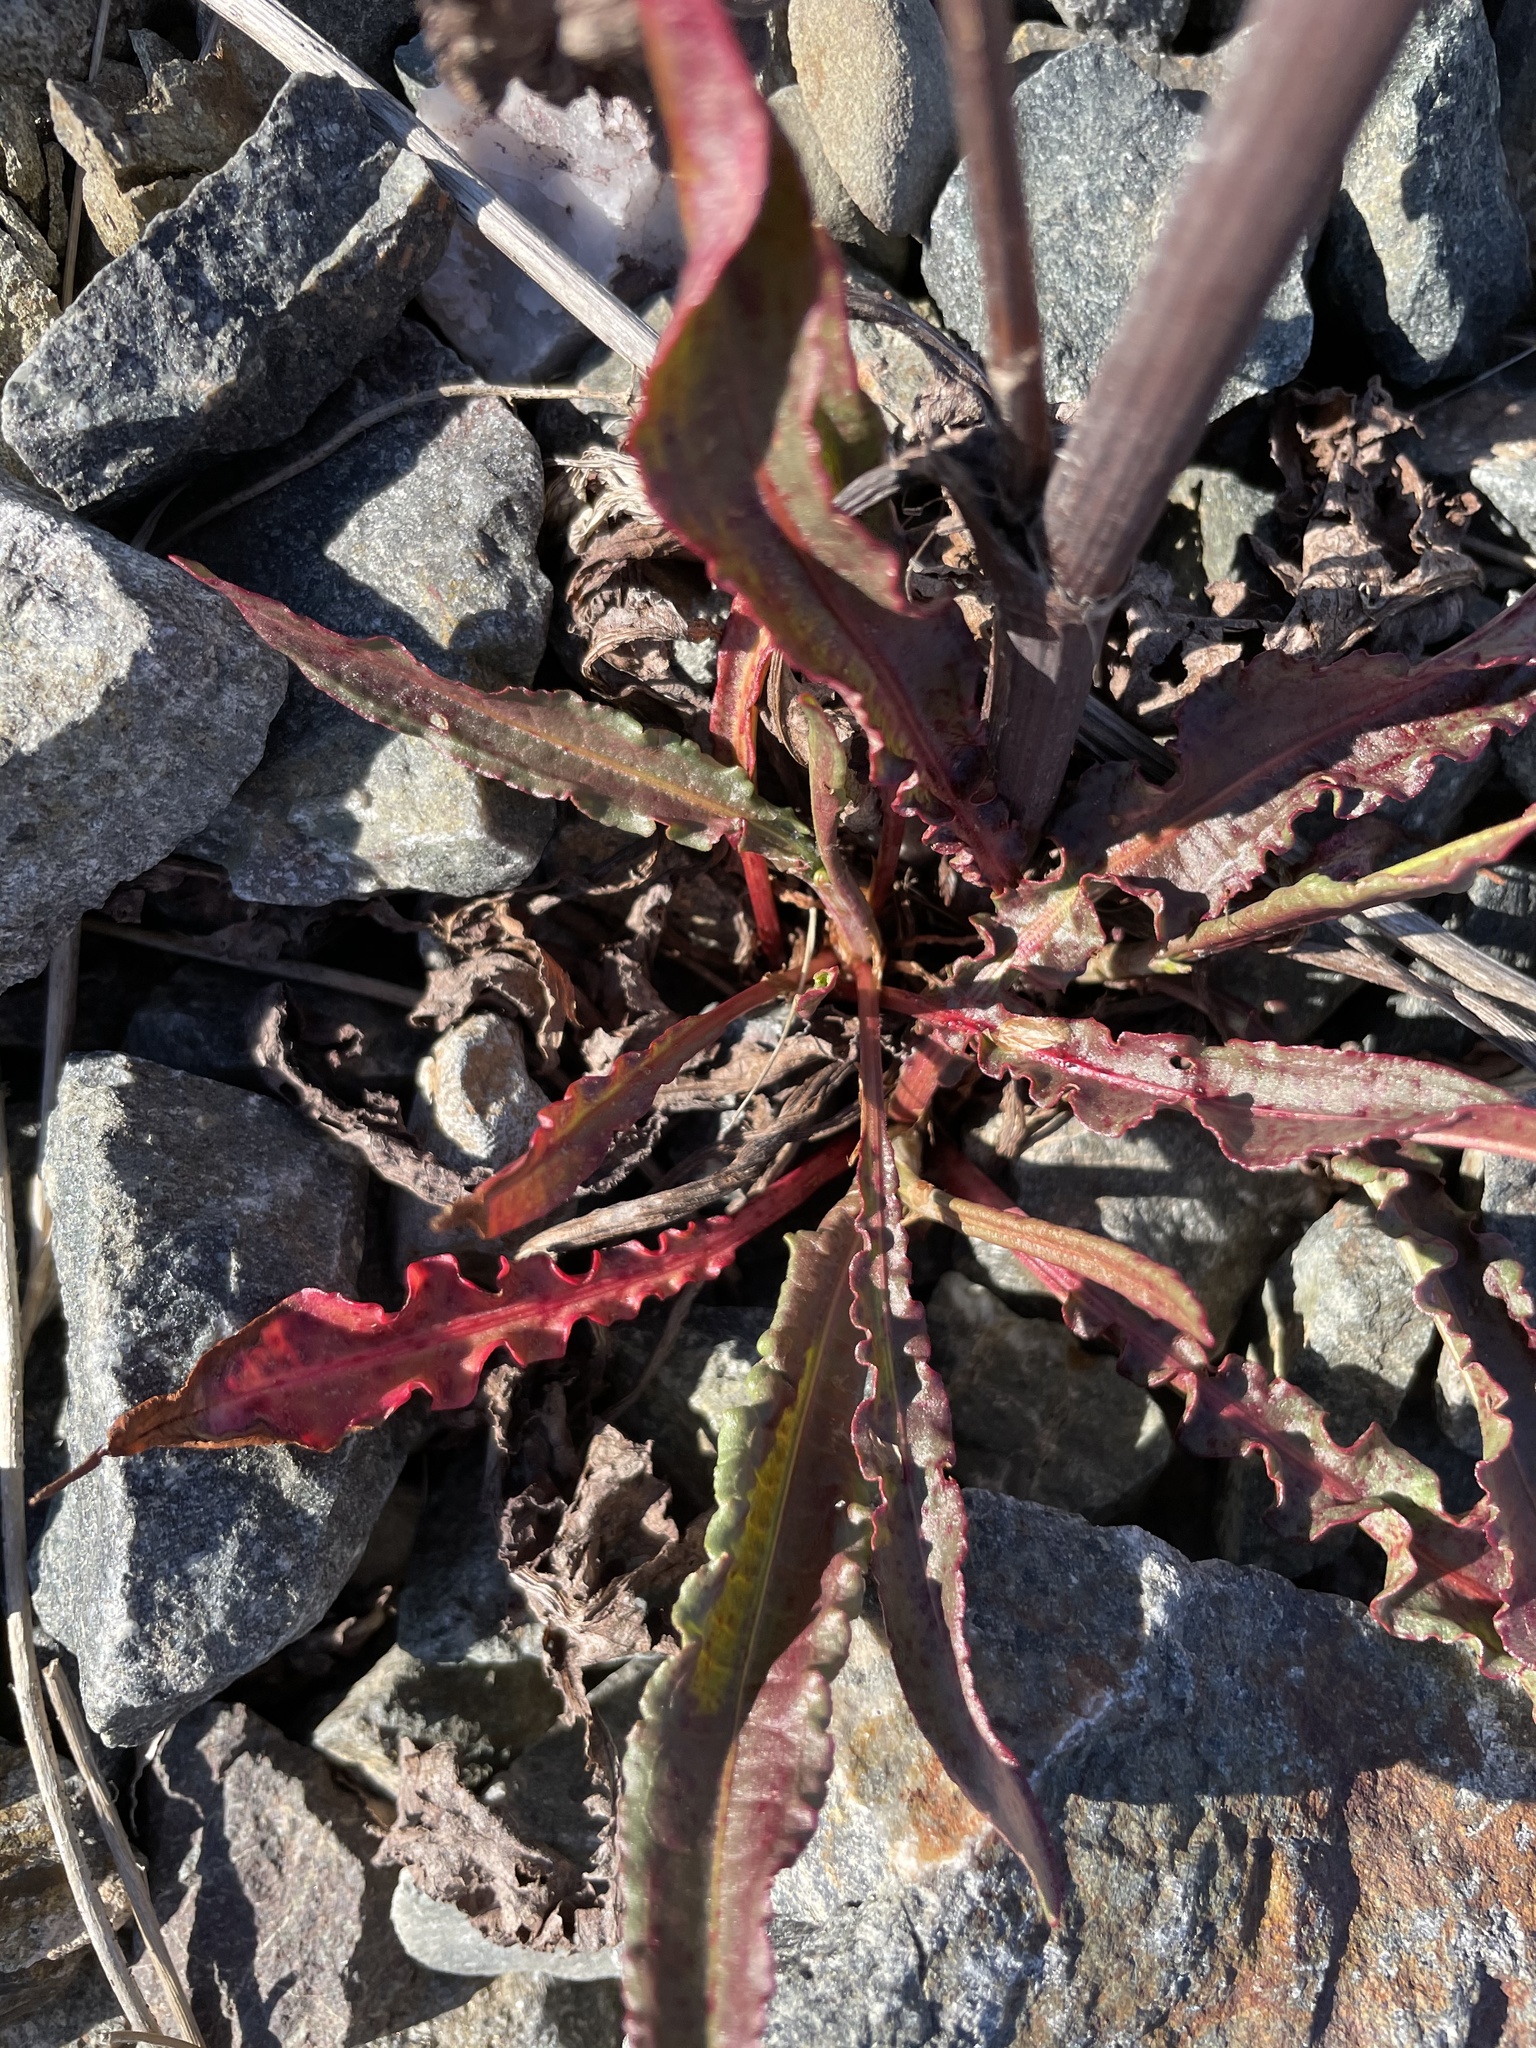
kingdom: Plantae
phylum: Tracheophyta
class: Magnoliopsida
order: Caryophyllales
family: Polygonaceae
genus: Rumex
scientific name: Rumex crispus
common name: Curled dock
